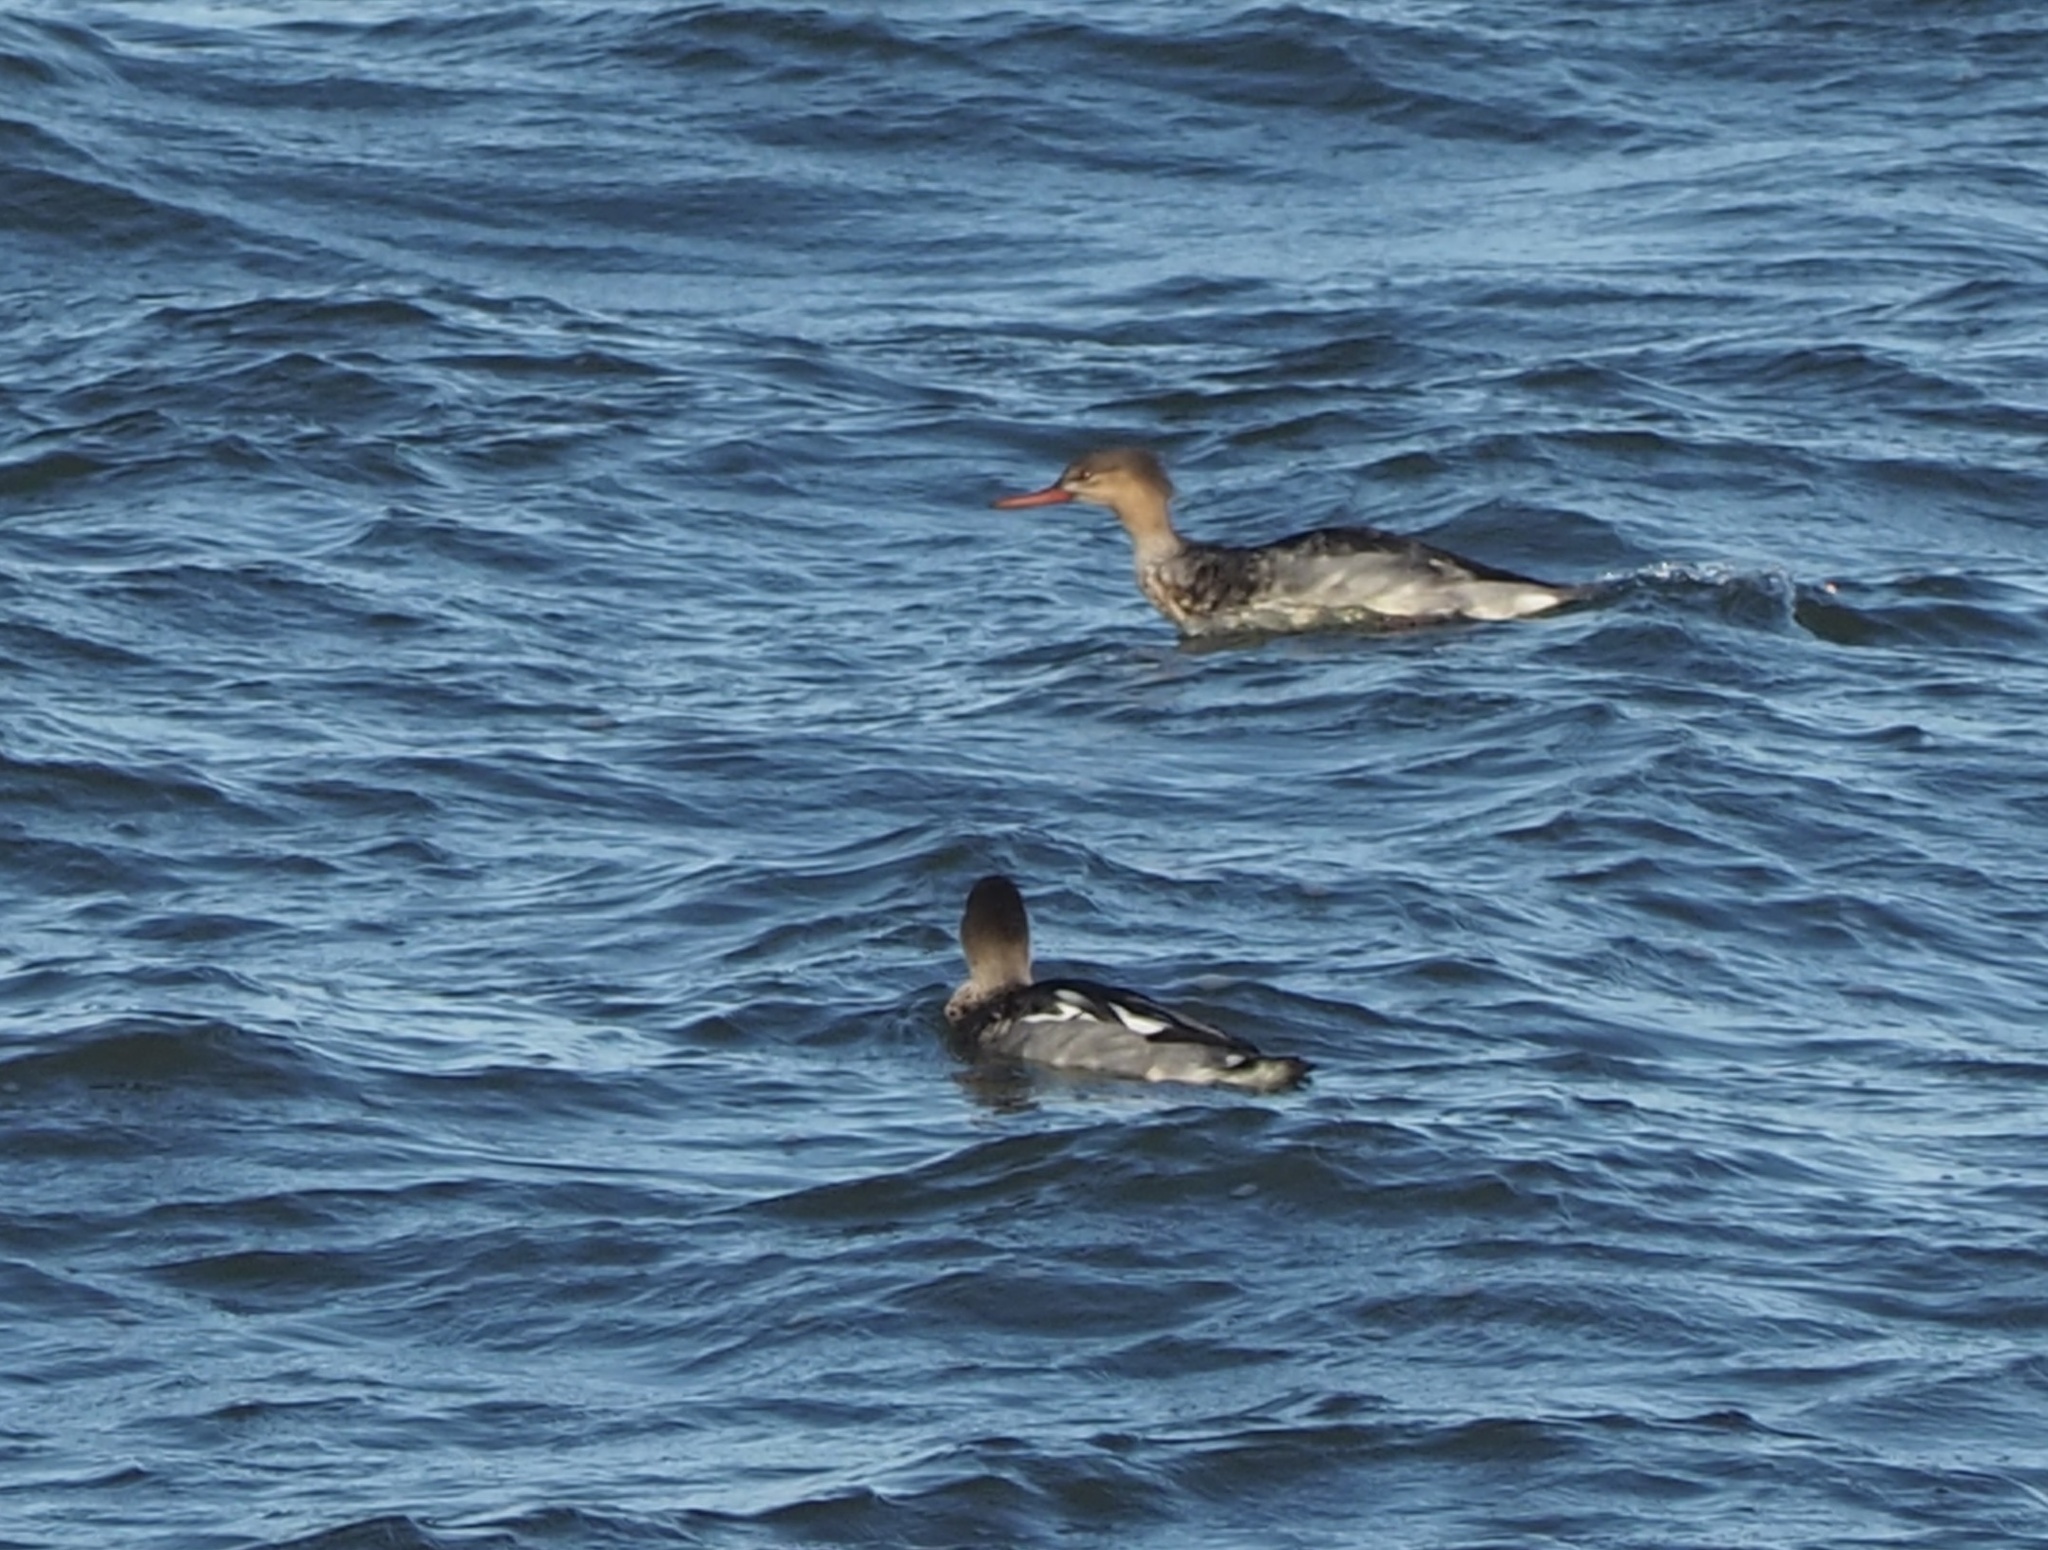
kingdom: Animalia
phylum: Chordata
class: Aves
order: Anseriformes
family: Anatidae
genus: Mergus
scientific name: Mergus serrator
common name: Red-breasted merganser
